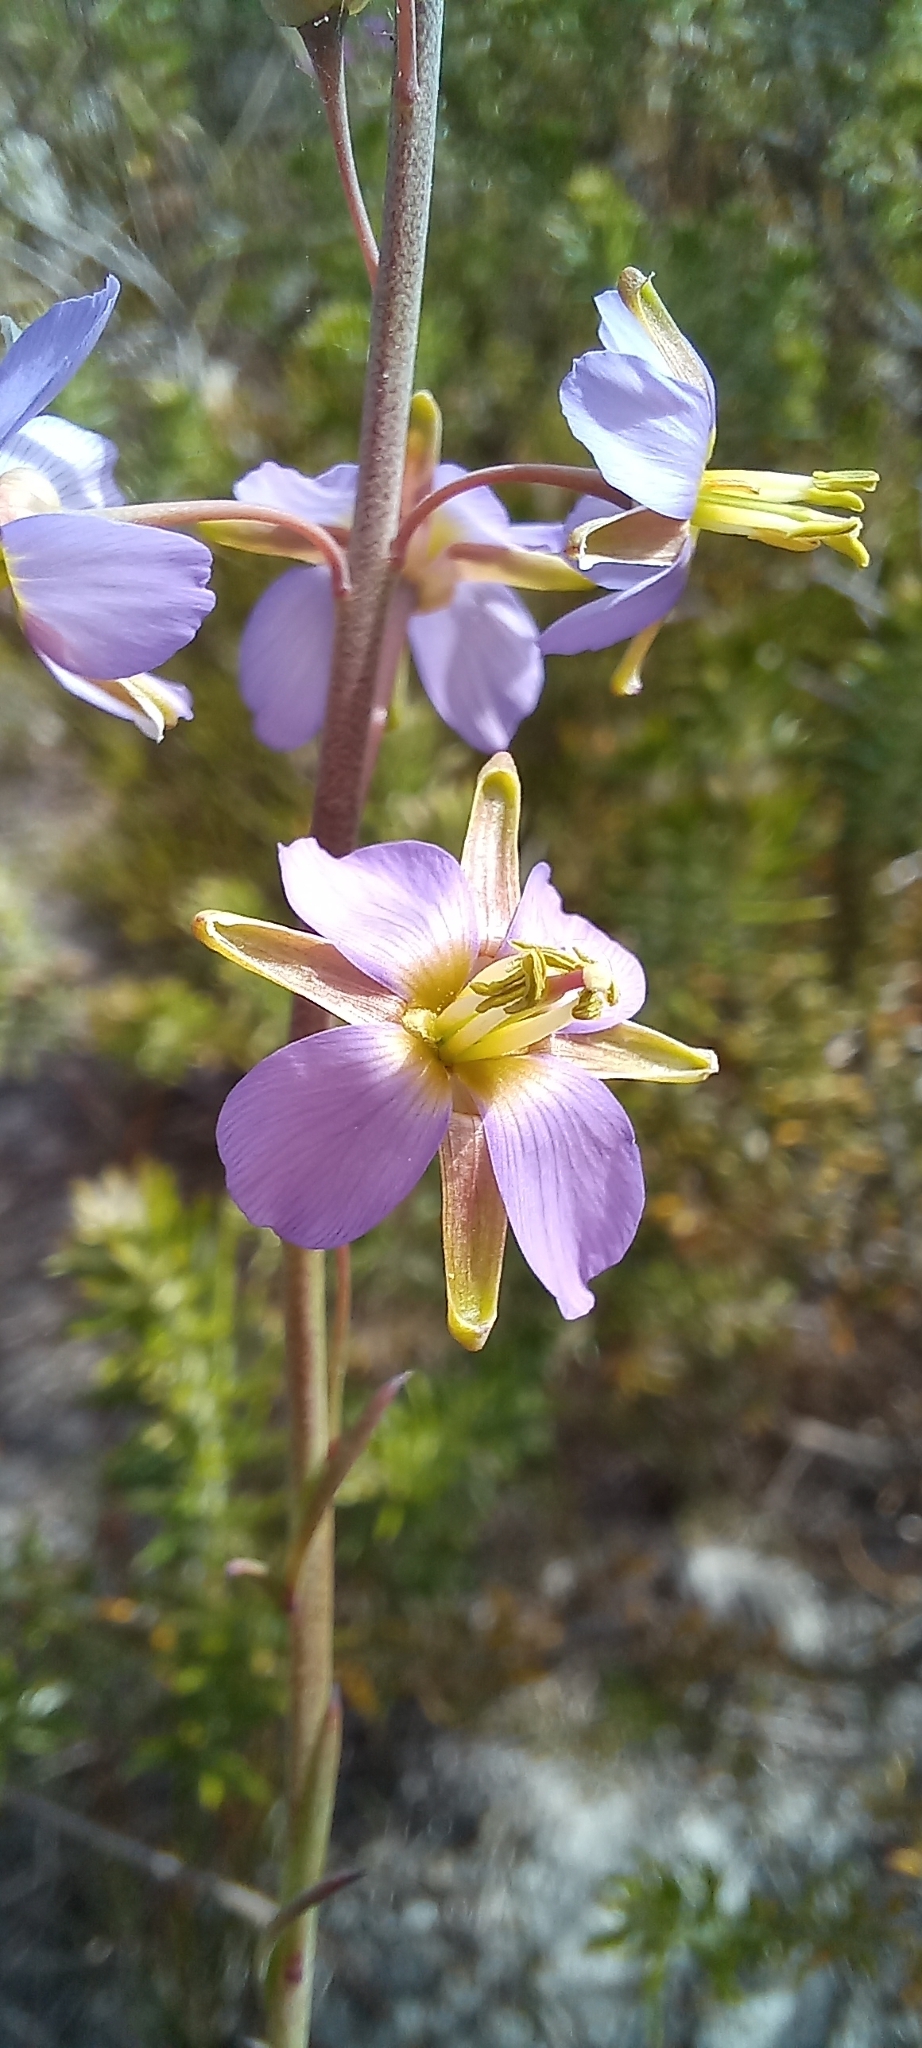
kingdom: Plantae
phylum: Tracheophyta
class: Magnoliopsida
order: Brassicales
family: Brassicaceae
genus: Heliophila
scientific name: Heliophila linearis
